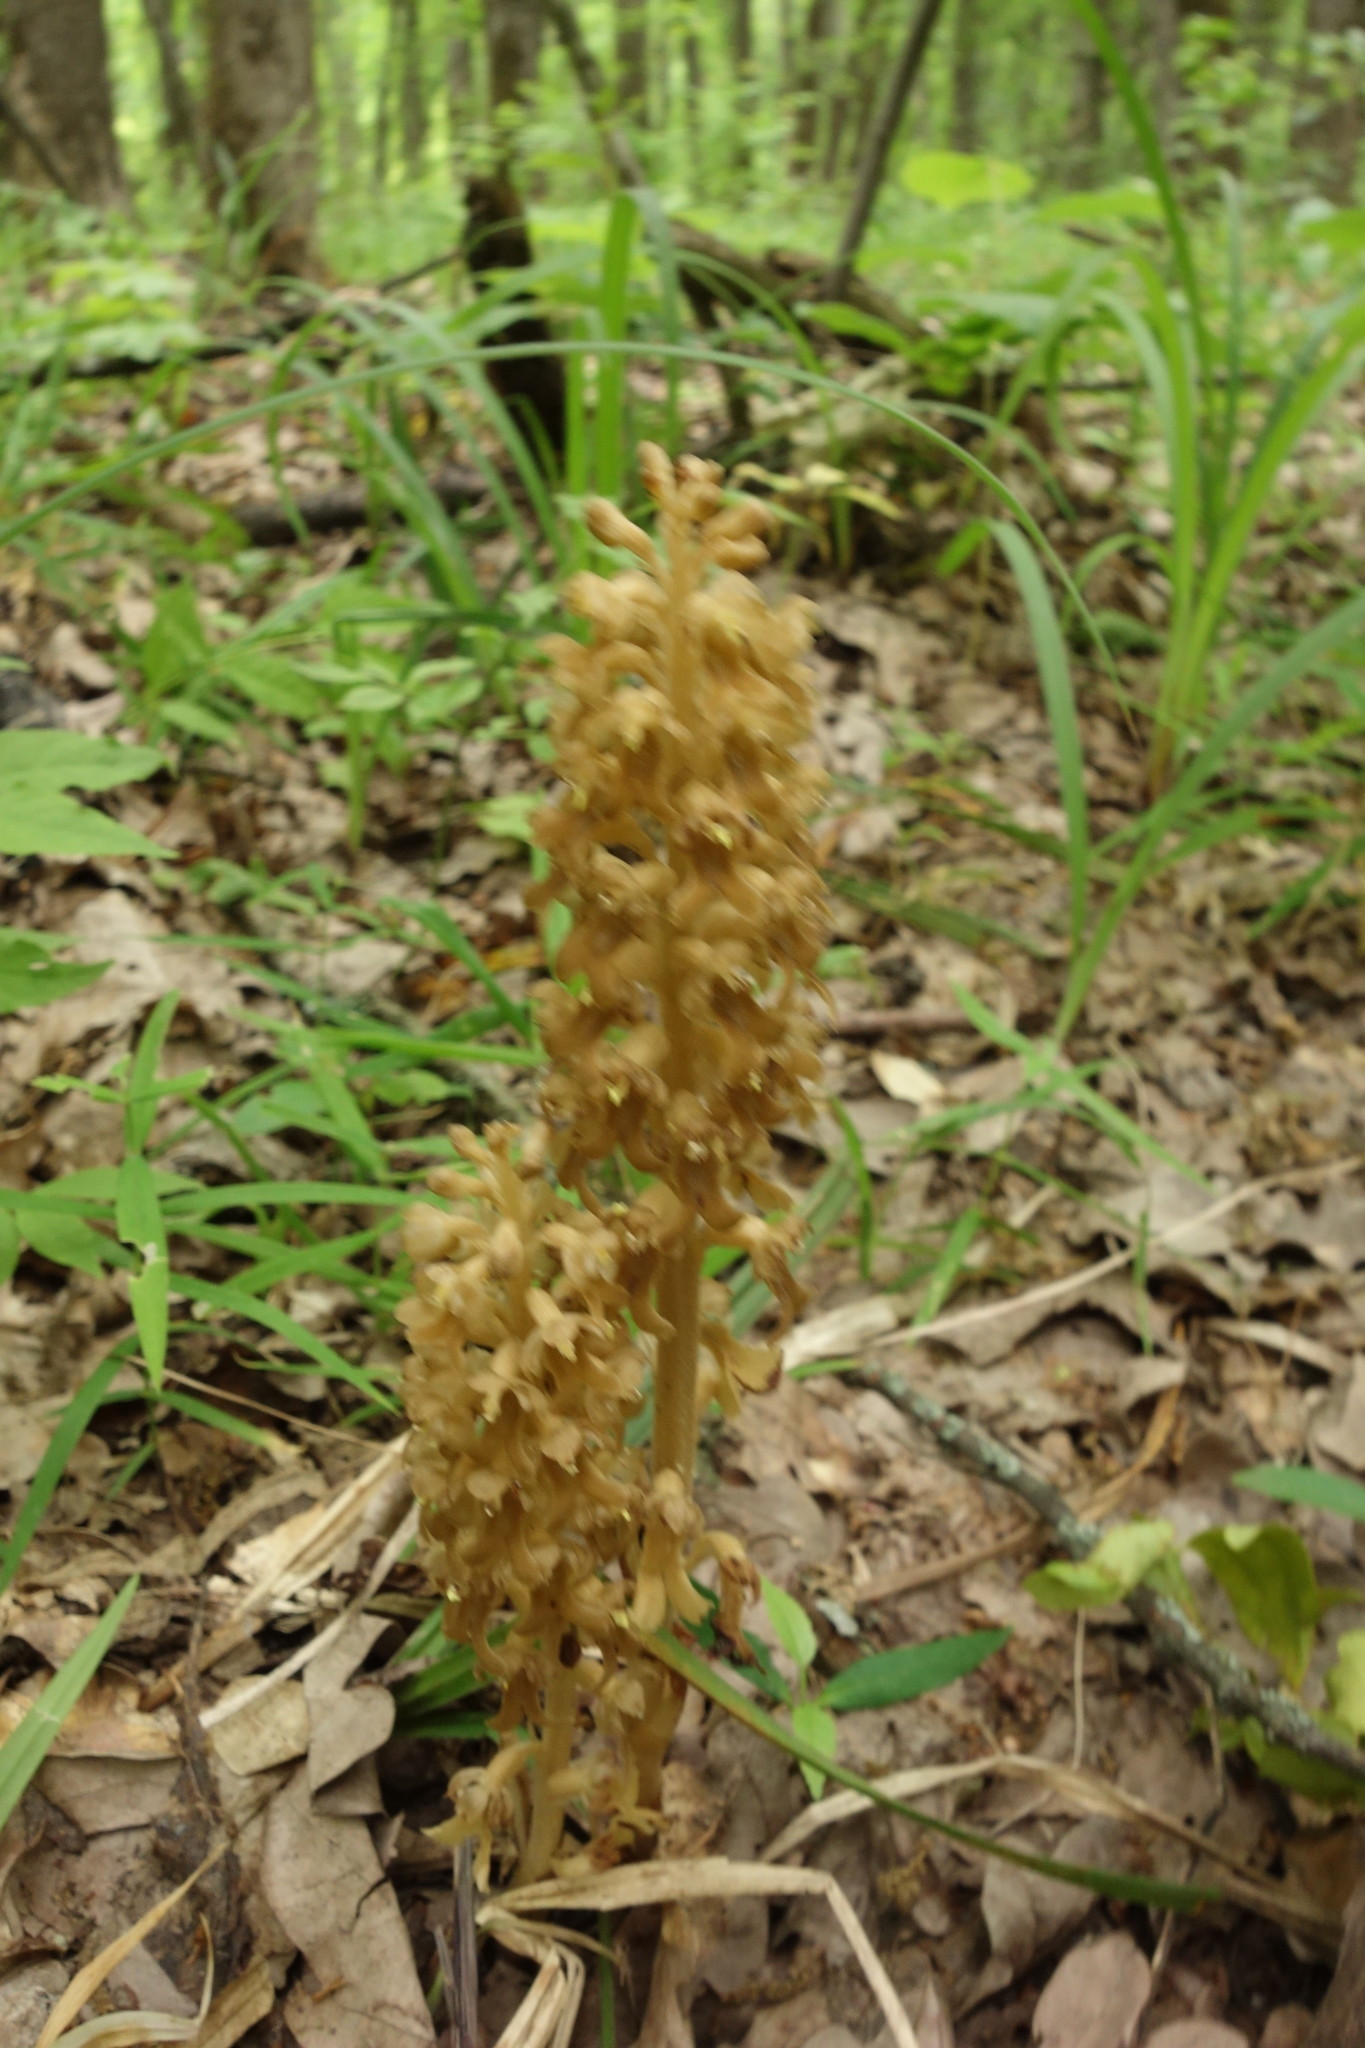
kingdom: Plantae
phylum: Tracheophyta
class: Liliopsida
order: Asparagales
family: Orchidaceae
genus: Neottia
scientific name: Neottia nidus-avis
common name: Bird's-nest orchid
